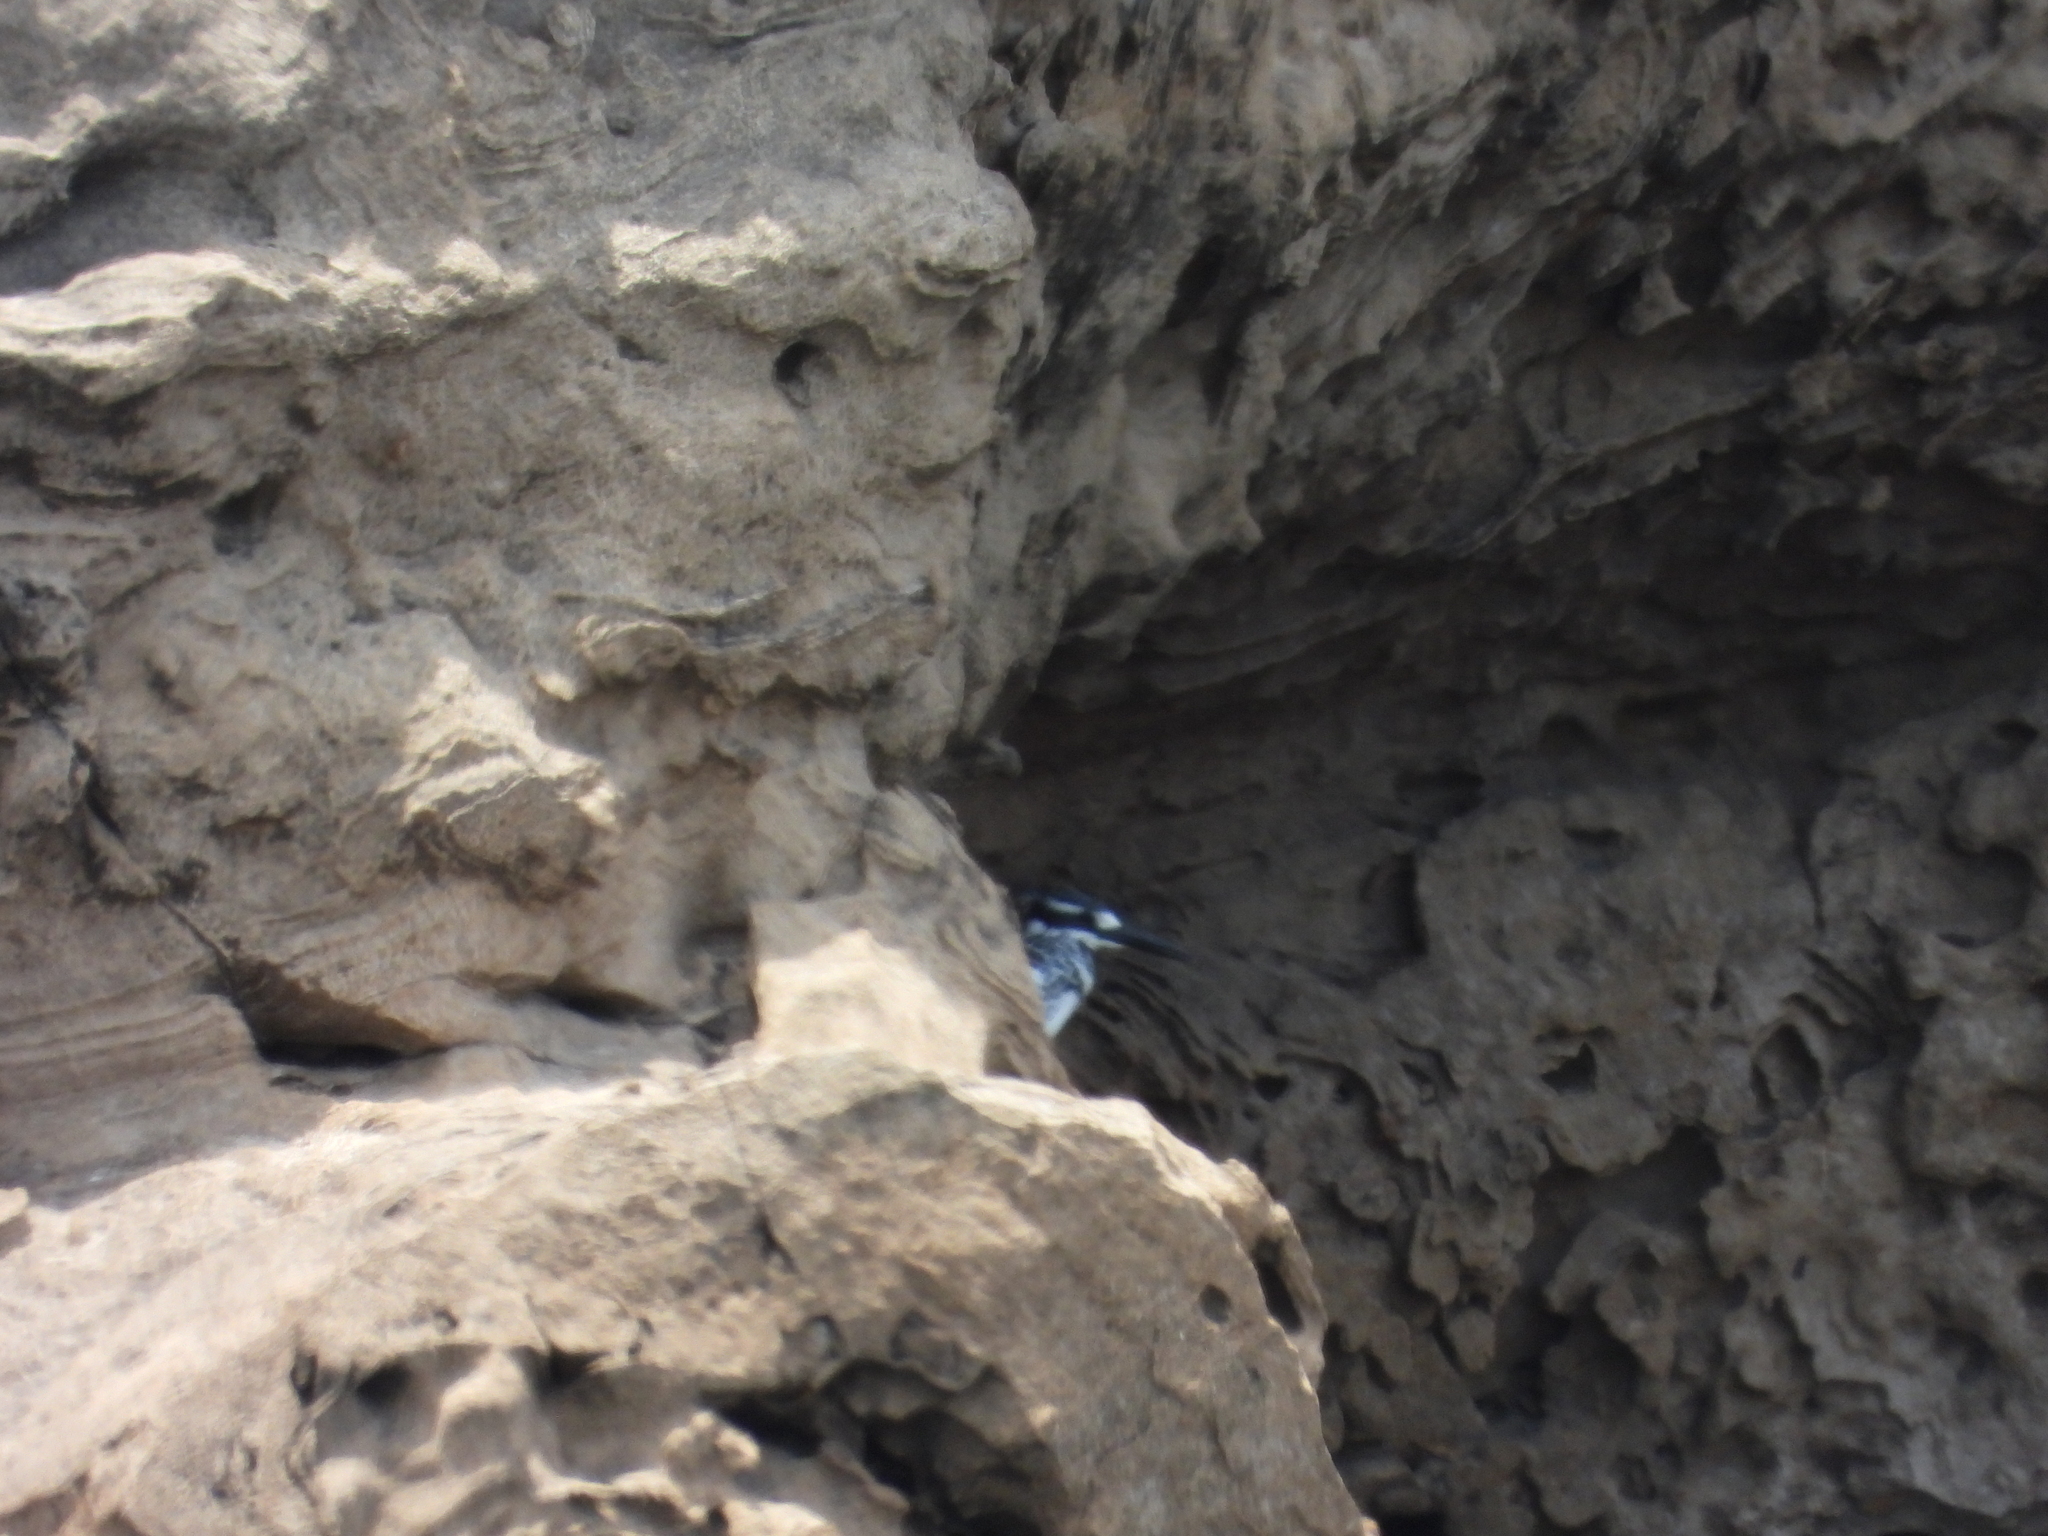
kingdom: Animalia
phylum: Chordata
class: Aves
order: Coraciiformes
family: Alcedinidae
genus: Ceryle
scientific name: Ceryle rudis
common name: Pied kingfisher
